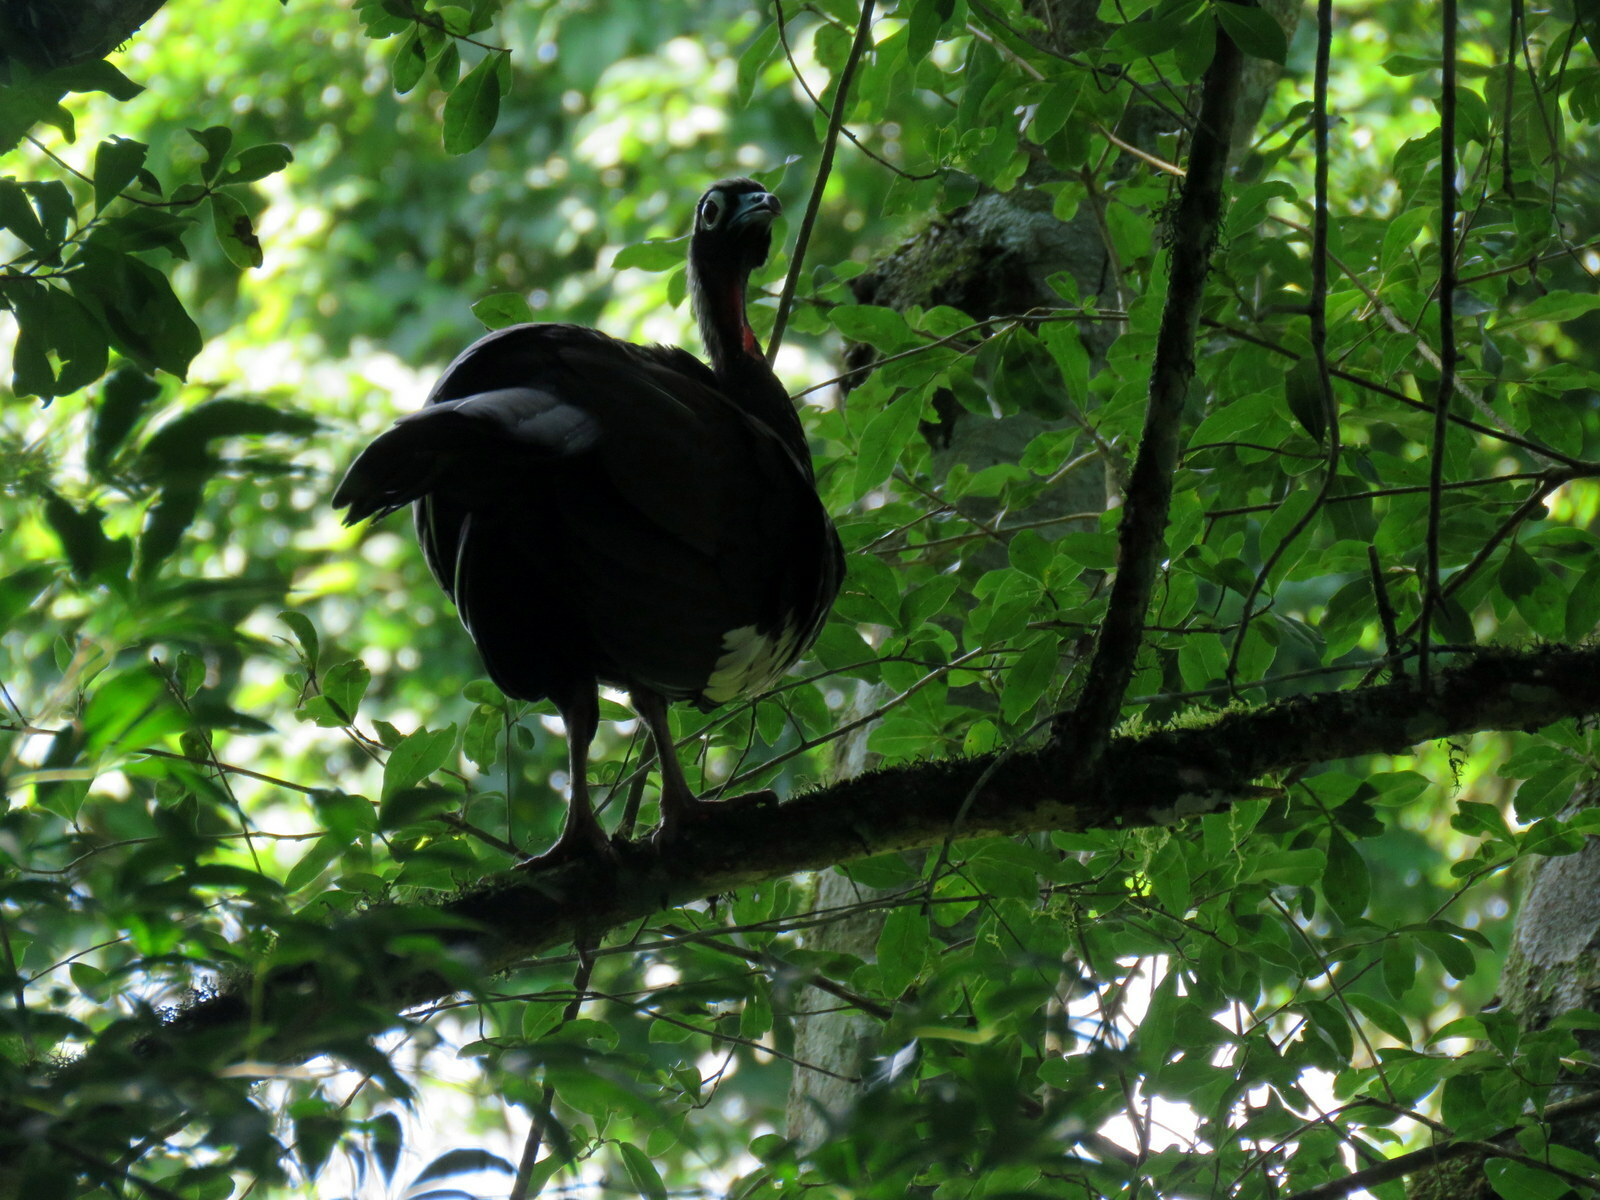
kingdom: Animalia
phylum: Chordata
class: Aves
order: Galliformes
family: Cracidae
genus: Pipile
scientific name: Pipile jacutinga
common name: Black-fronted piping-guan
